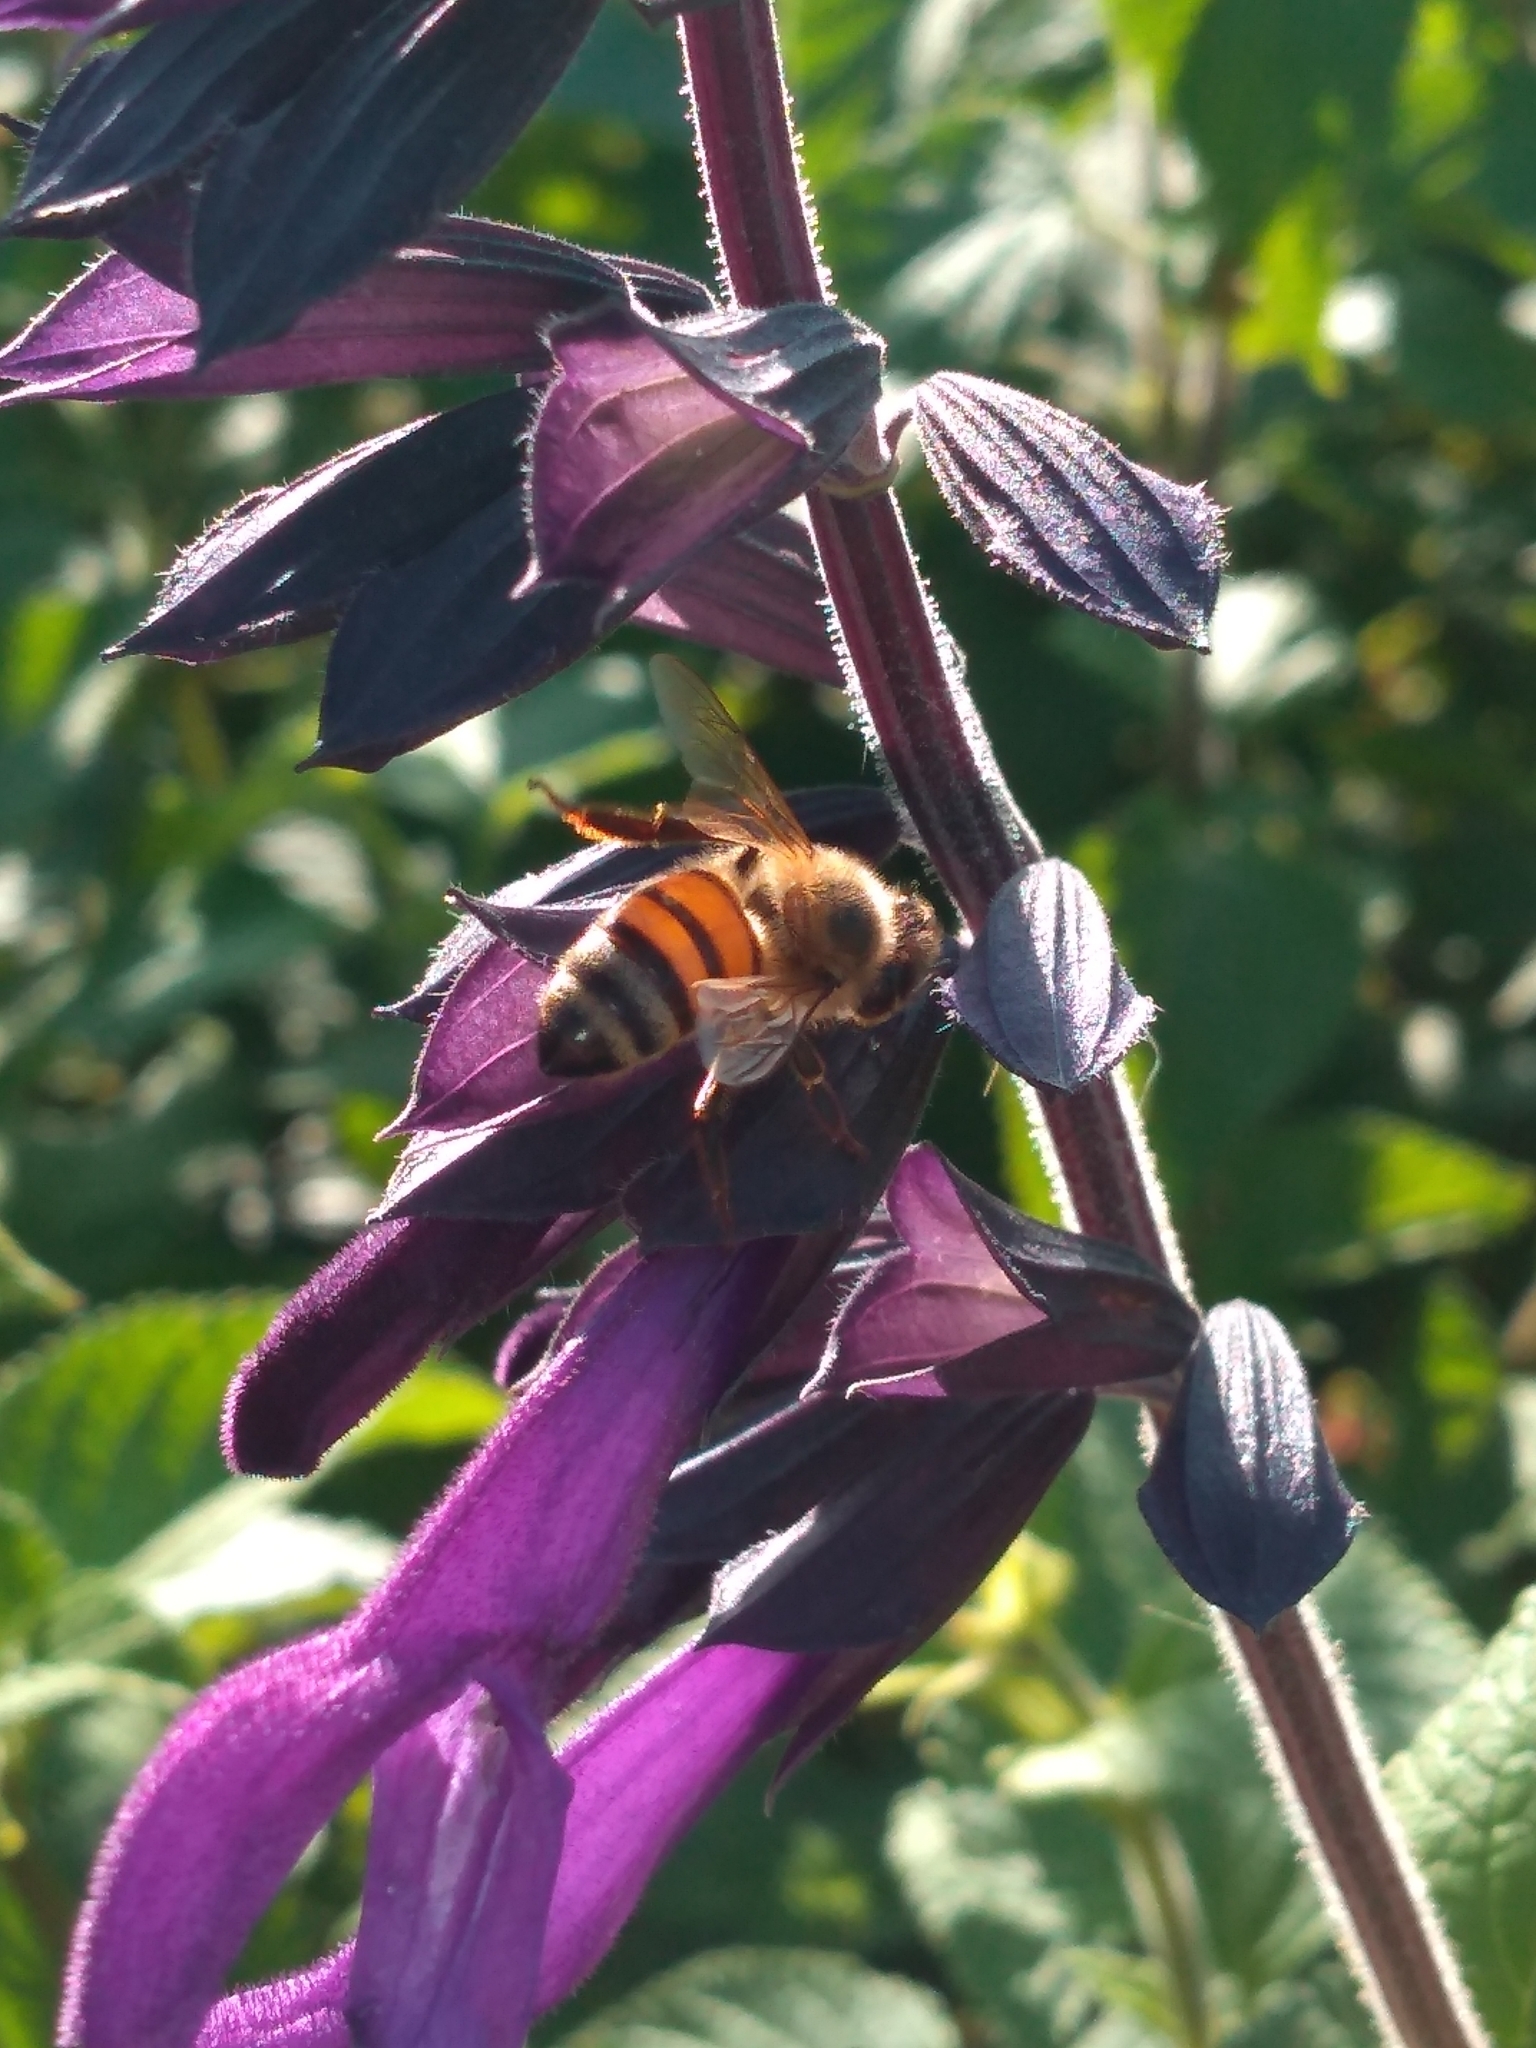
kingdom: Animalia
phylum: Arthropoda
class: Insecta
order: Hymenoptera
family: Apidae
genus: Apis
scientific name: Apis mellifera
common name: Honey bee
